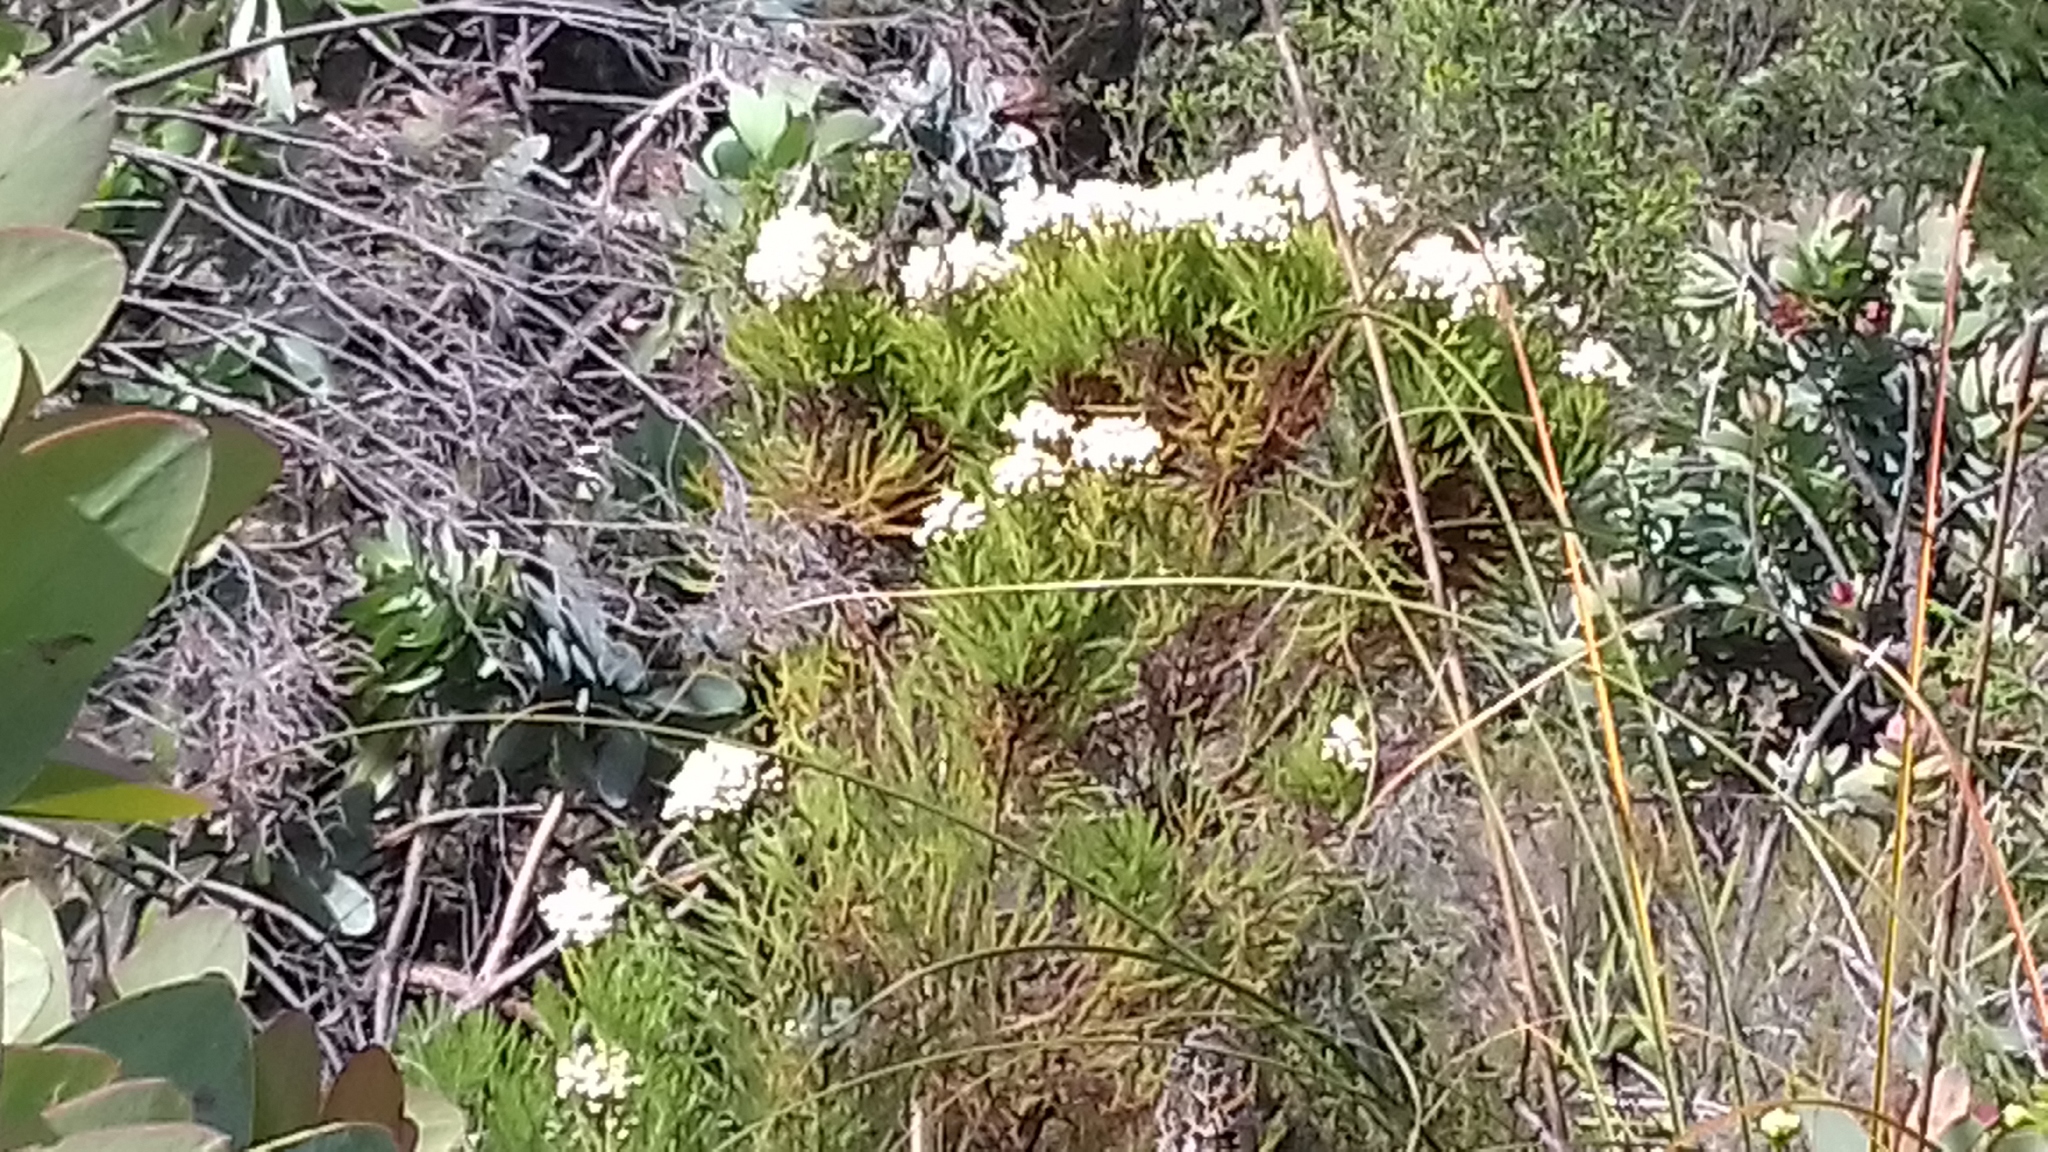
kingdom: Plantae
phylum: Tracheophyta
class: Magnoliopsida
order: Bruniales
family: Bruniaceae
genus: Berzelia
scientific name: Berzelia lanuginosa
